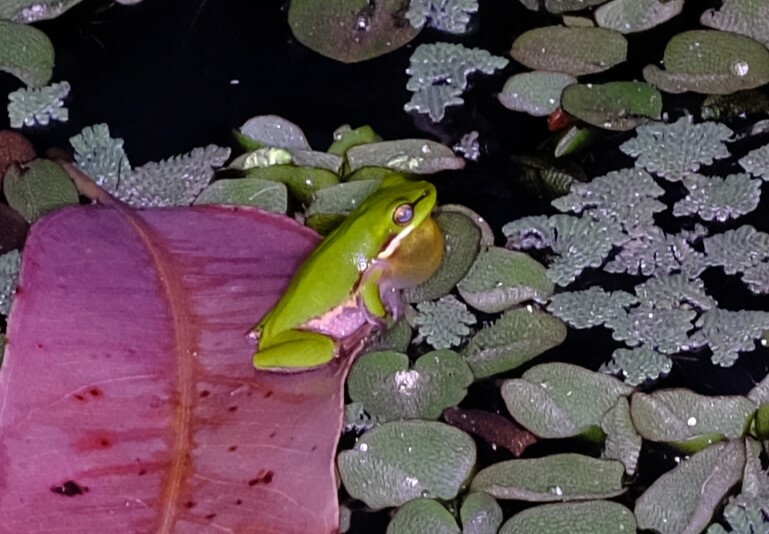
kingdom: Animalia
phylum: Chordata
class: Amphibia
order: Anura
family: Pelodryadidae
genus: Litoria
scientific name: Litoria fallax
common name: Eastern dwarf treefrog
